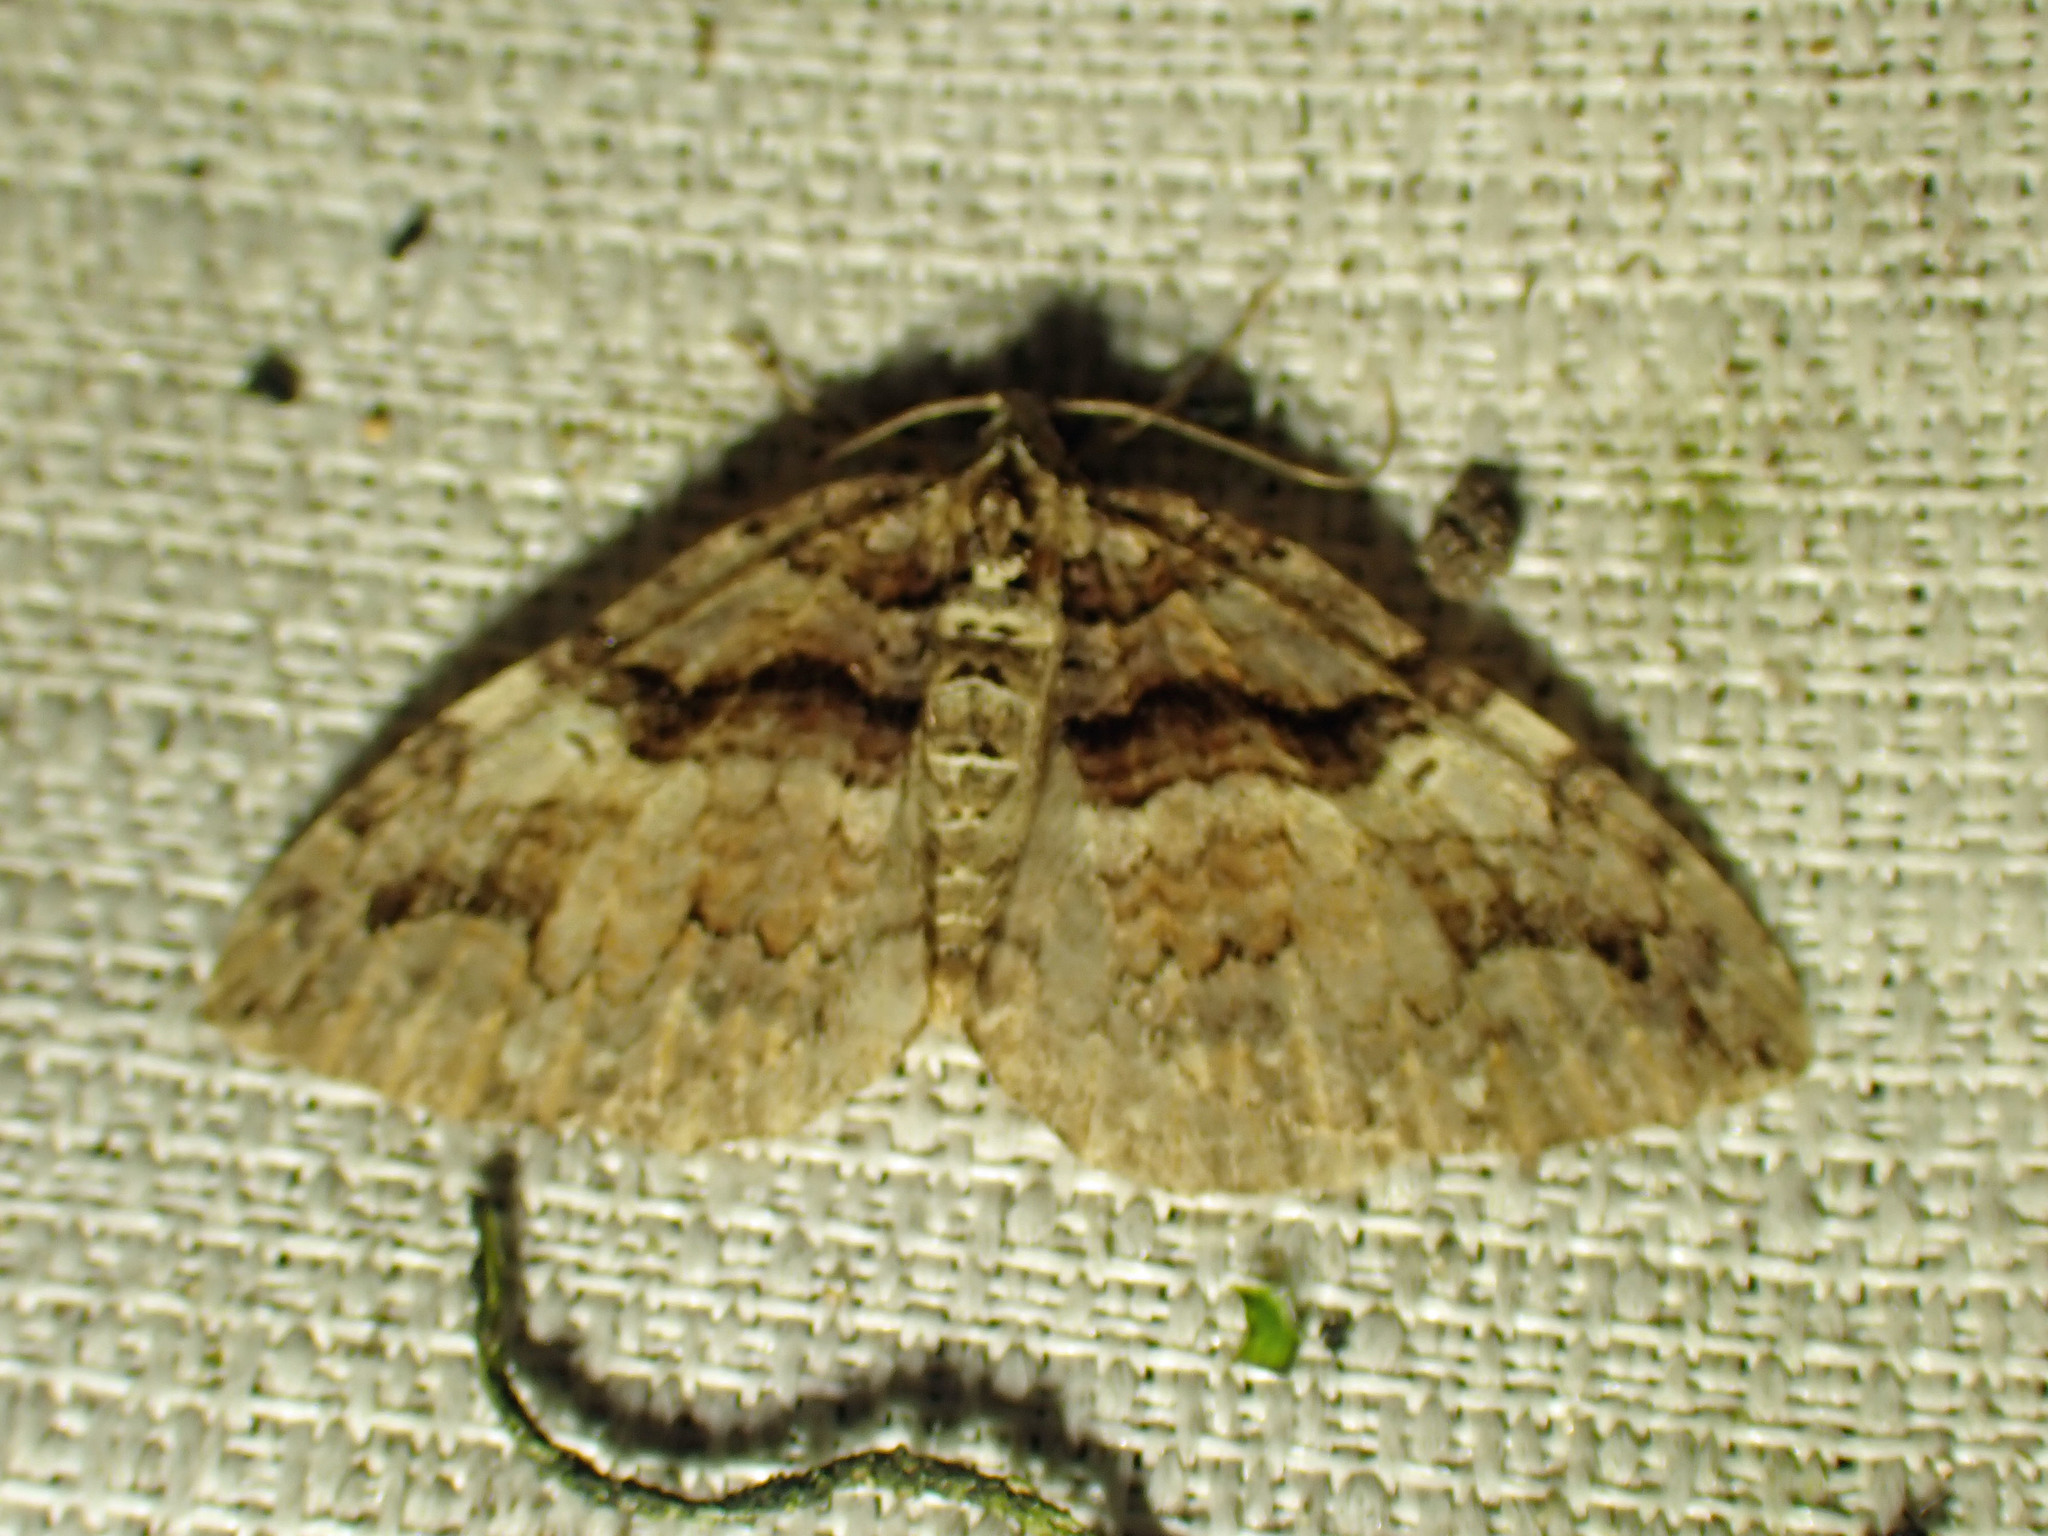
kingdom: Animalia
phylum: Arthropoda
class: Insecta
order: Lepidoptera
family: Geometridae
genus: Anticlea
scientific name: Anticlea vasiliata
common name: Variable carpet
